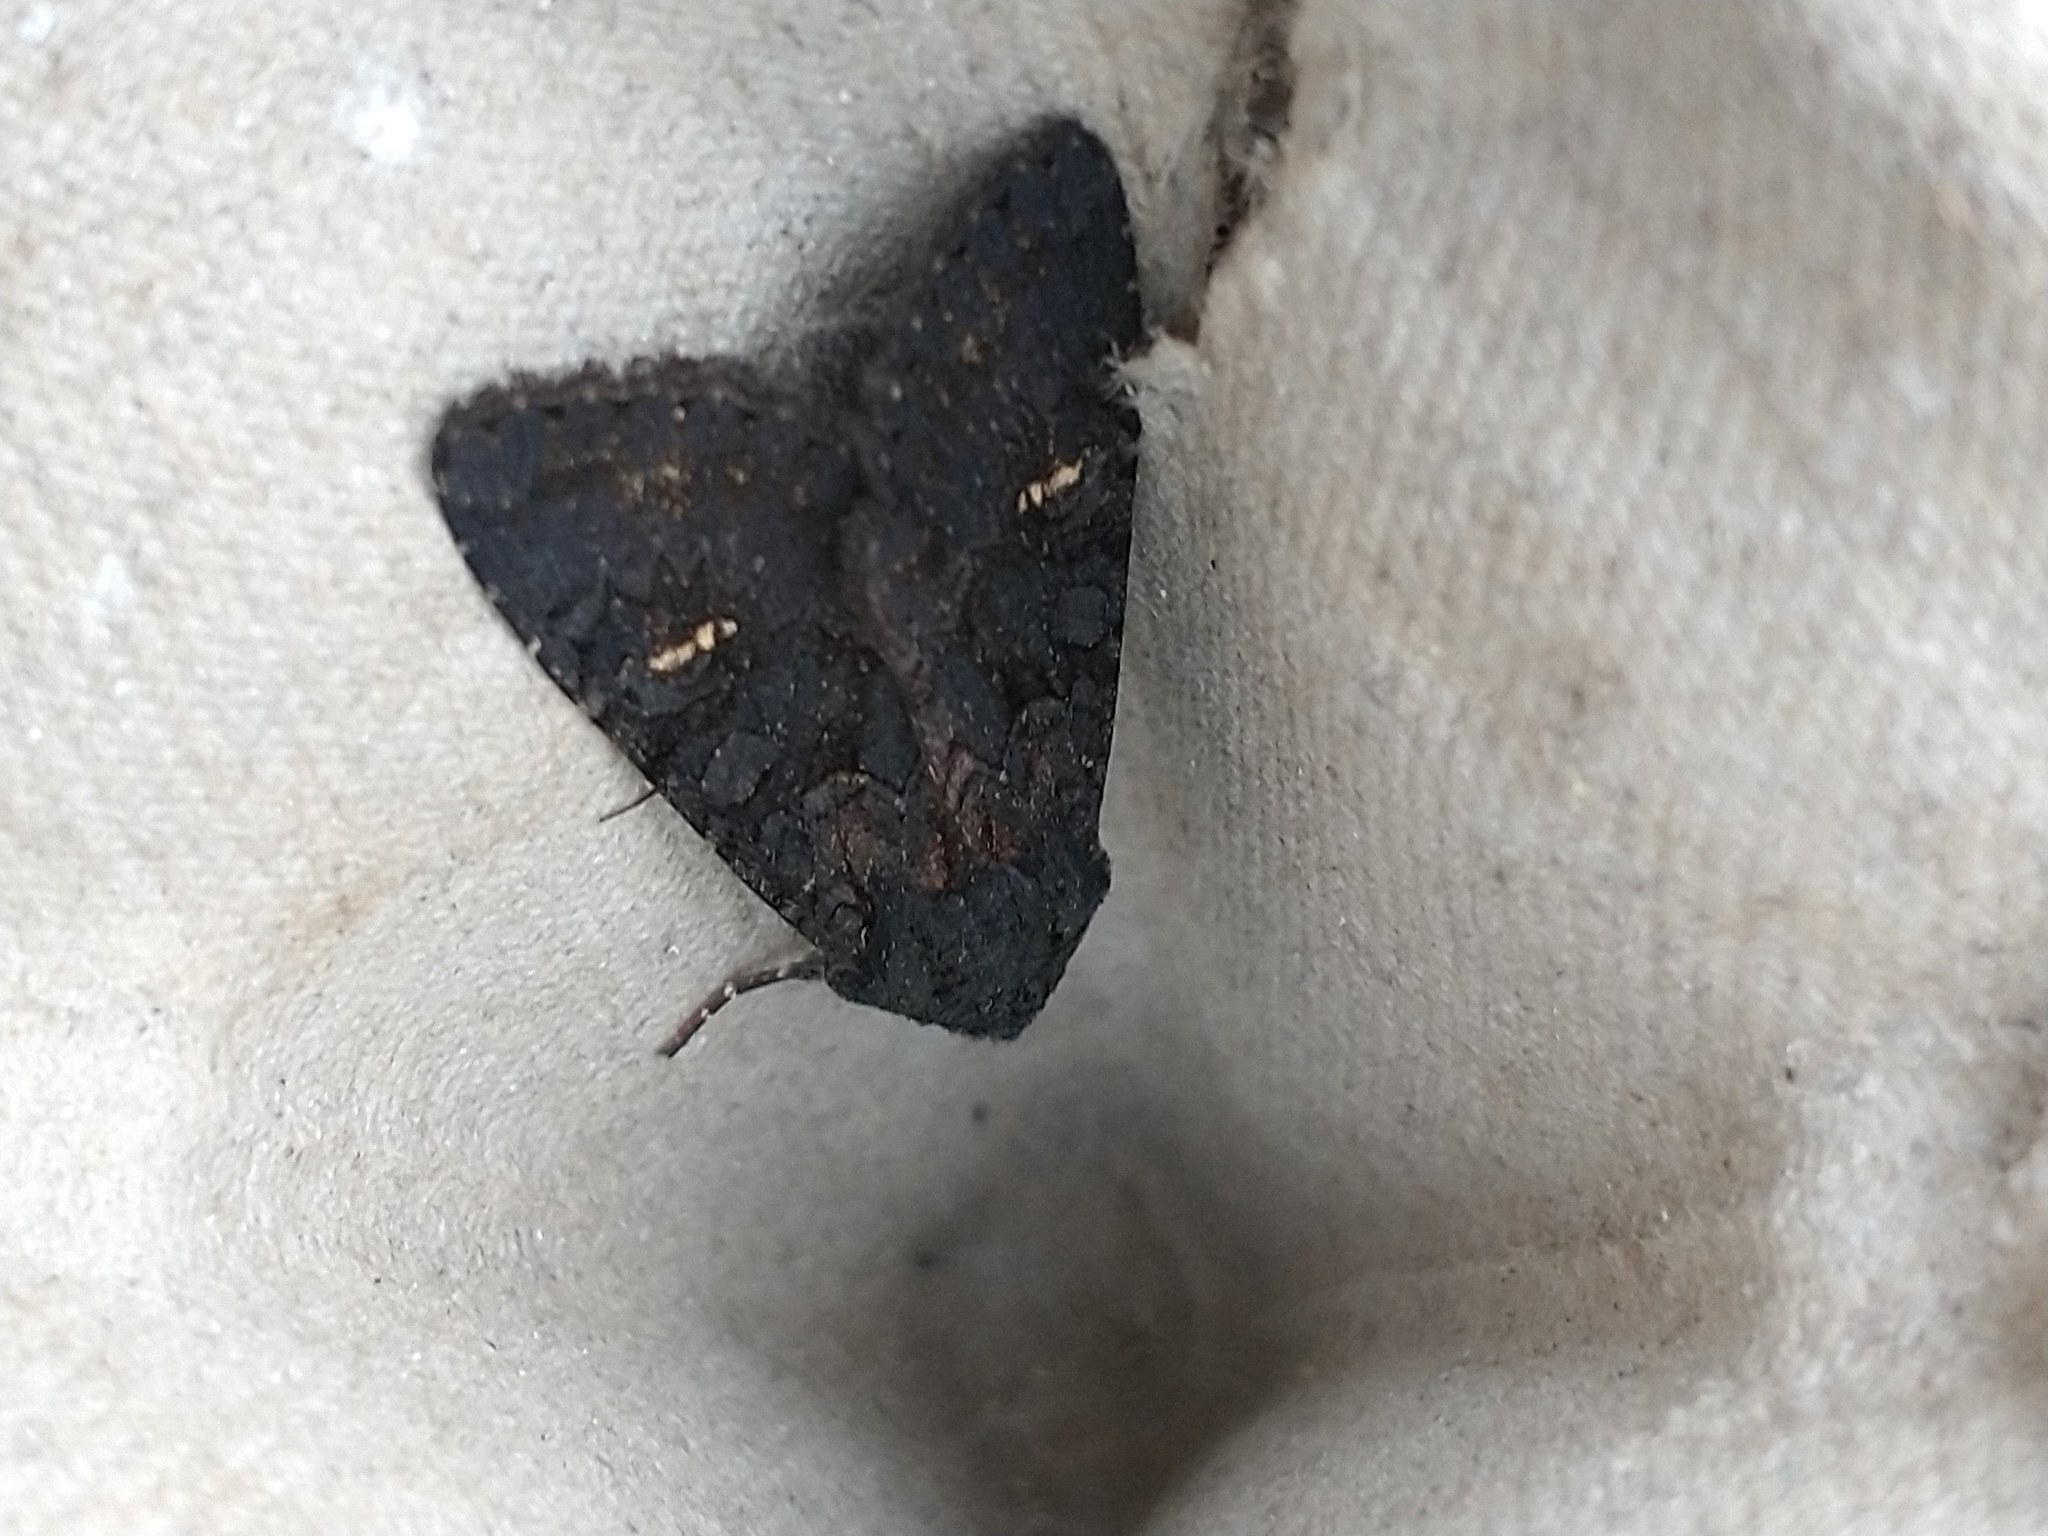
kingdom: Animalia
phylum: Arthropoda
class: Insecta
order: Lepidoptera
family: Noctuidae
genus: Aporophyla
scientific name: Aporophyla nigra
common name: Black rustic
